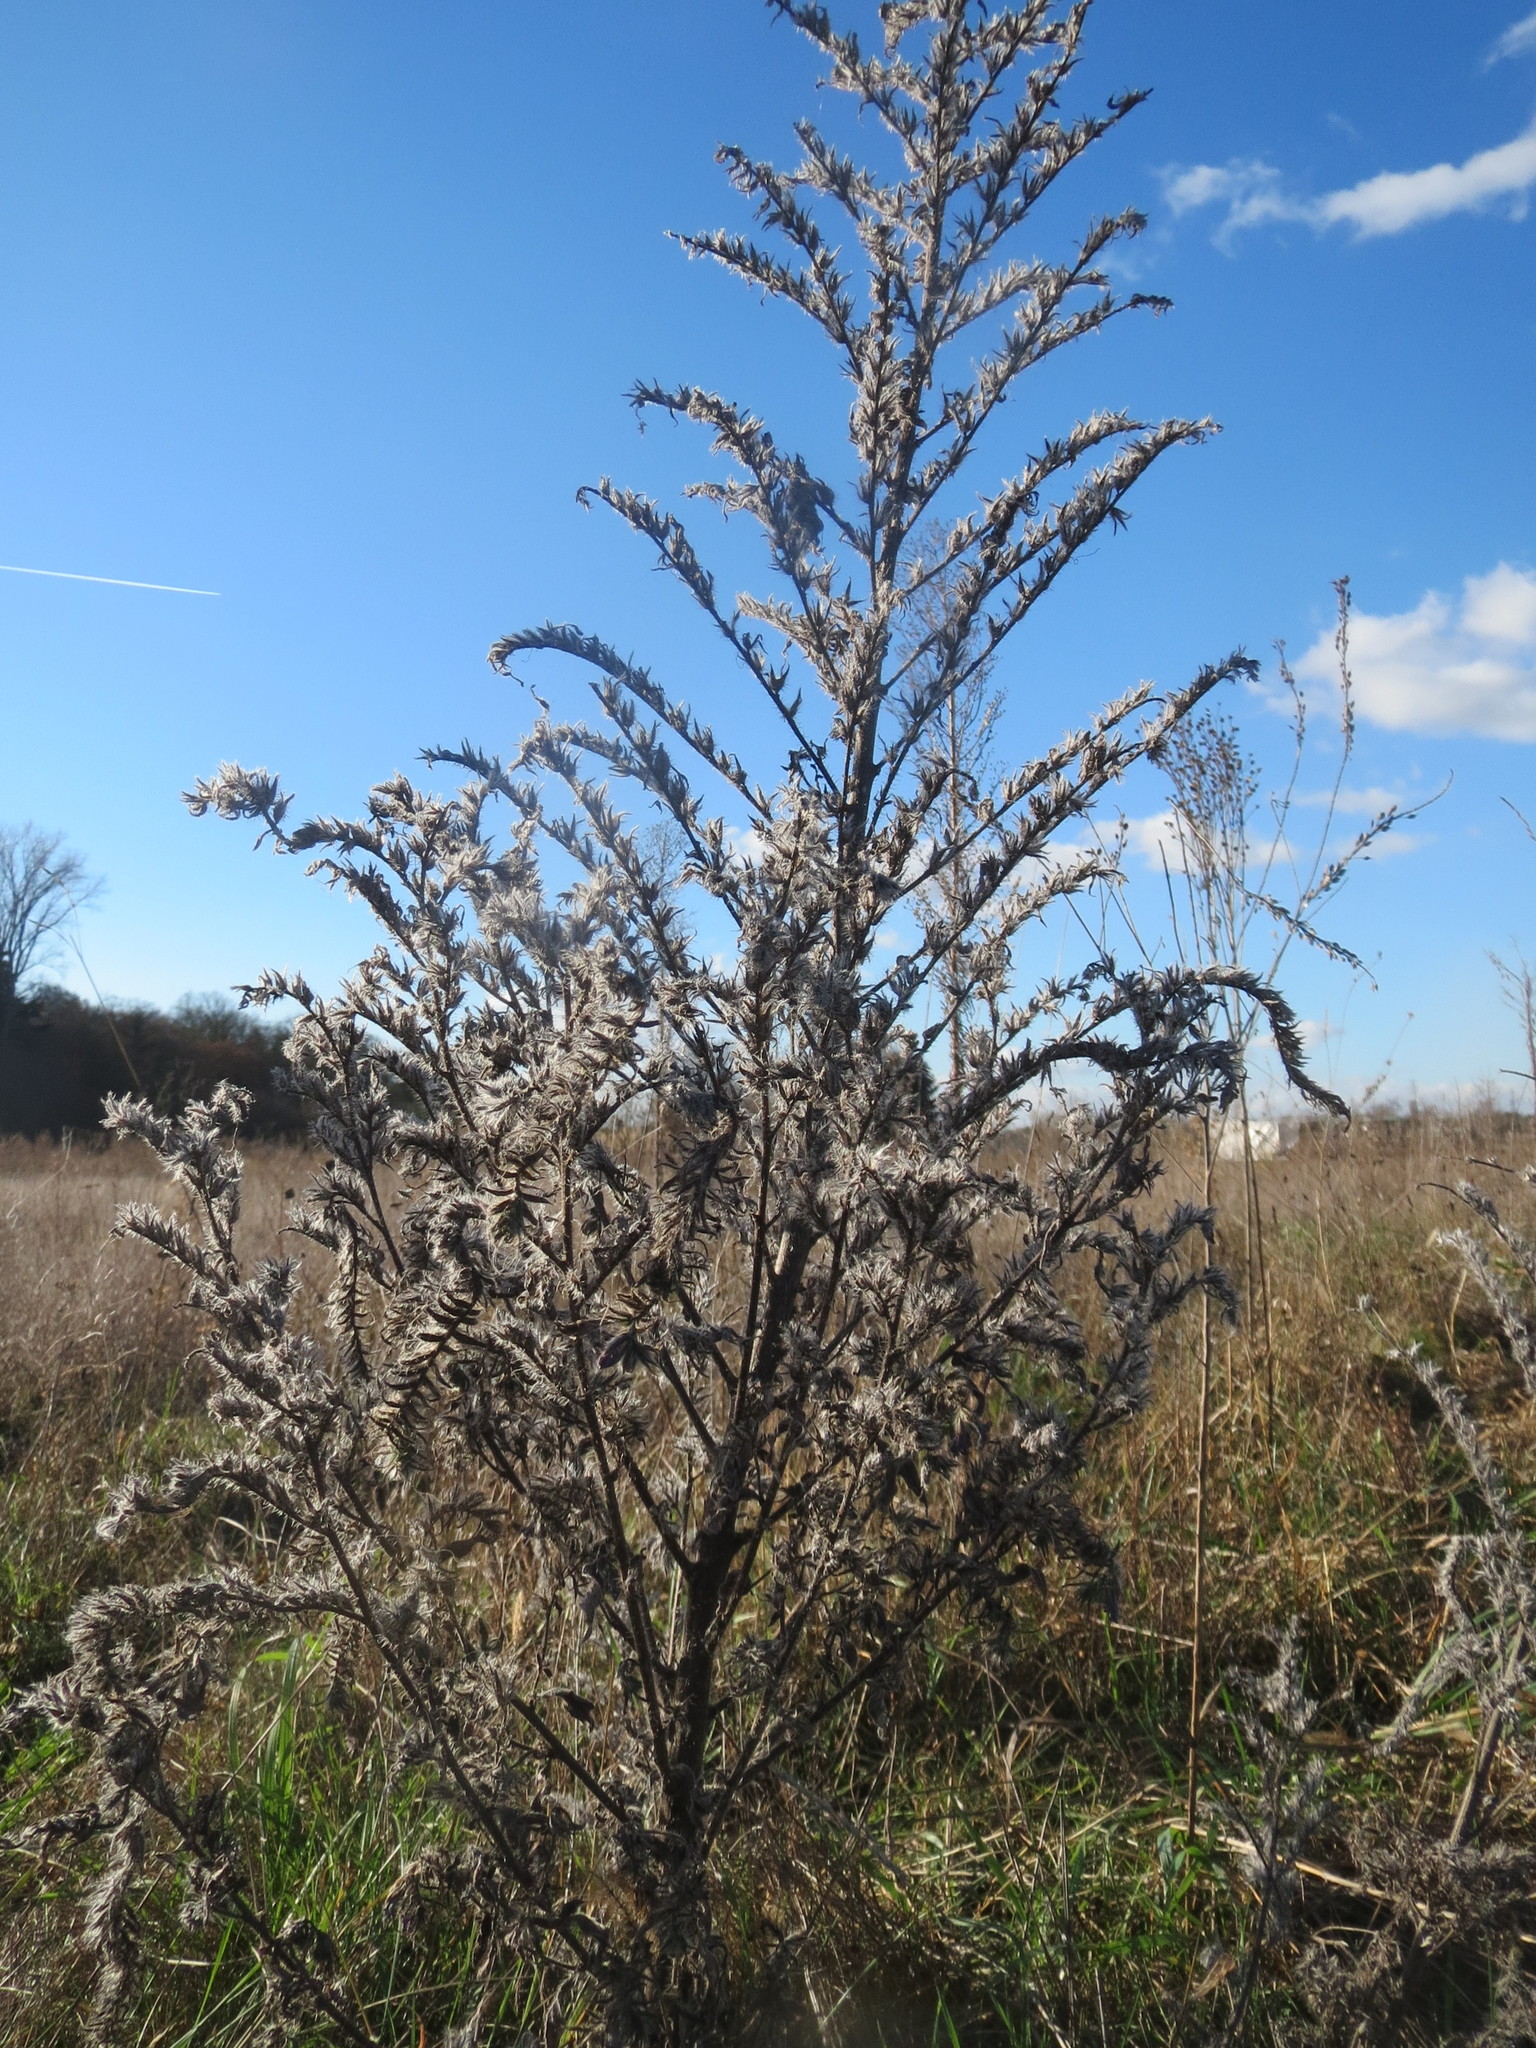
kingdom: Plantae
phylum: Tracheophyta
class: Magnoliopsida
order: Boraginales
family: Boraginaceae
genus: Echium
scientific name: Echium vulgare
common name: Common viper's bugloss
